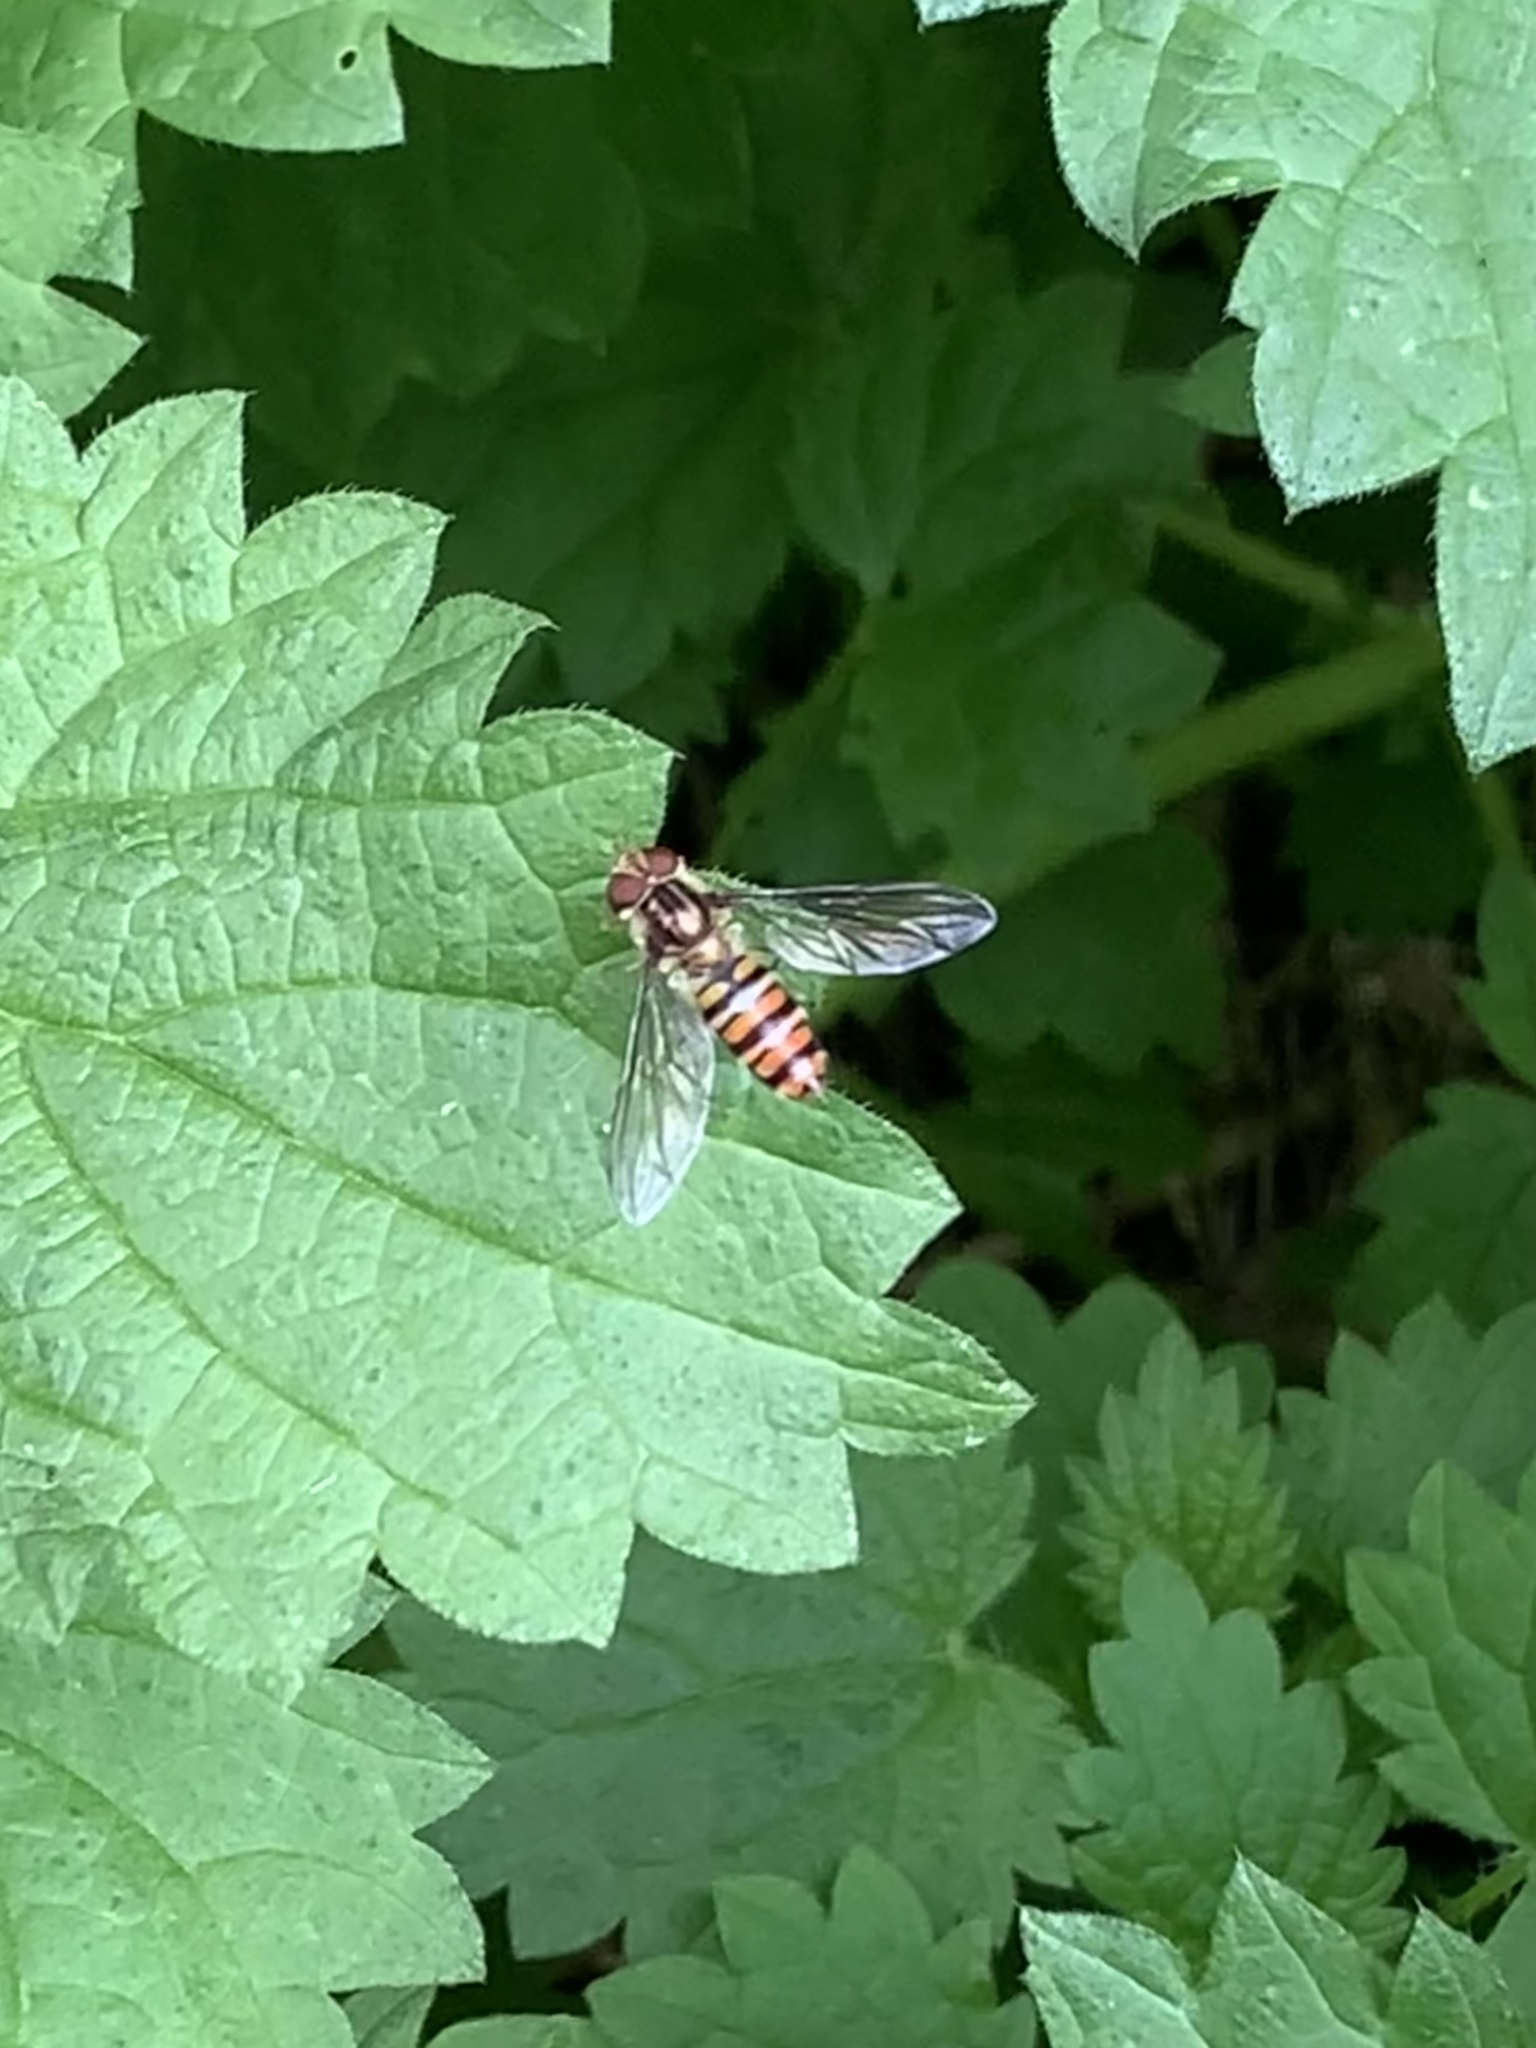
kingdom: Animalia
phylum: Arthropoda
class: Insecta
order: Diptera
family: Syrphidae
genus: Episyrphus
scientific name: Episyrphus balteatus
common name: Marmalade hoverfly
